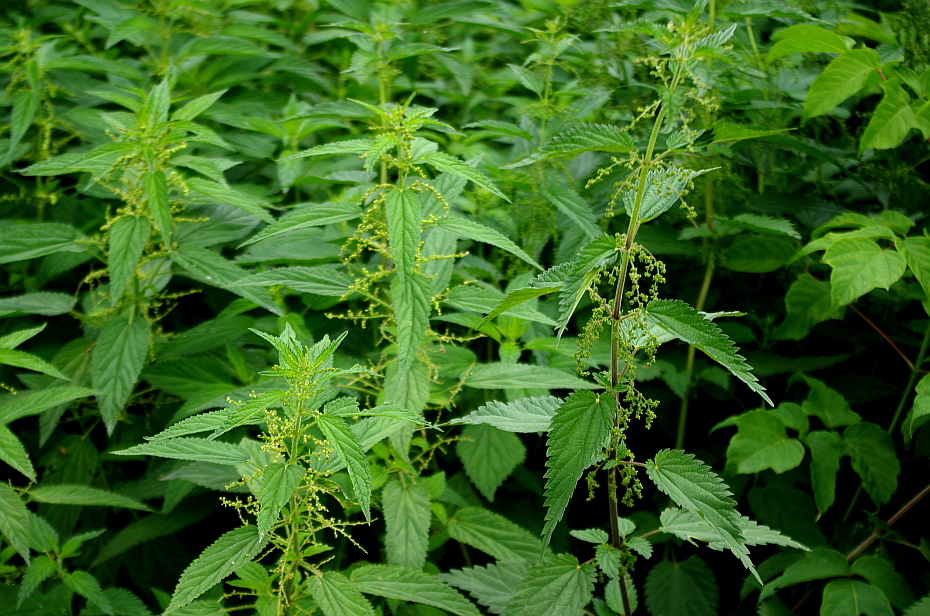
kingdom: Plantae
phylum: Tracheophyta
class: Magnoliopsida
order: Rosales
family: Urticaceae
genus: Urtica
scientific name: Urtica dioica
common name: Common nettle
